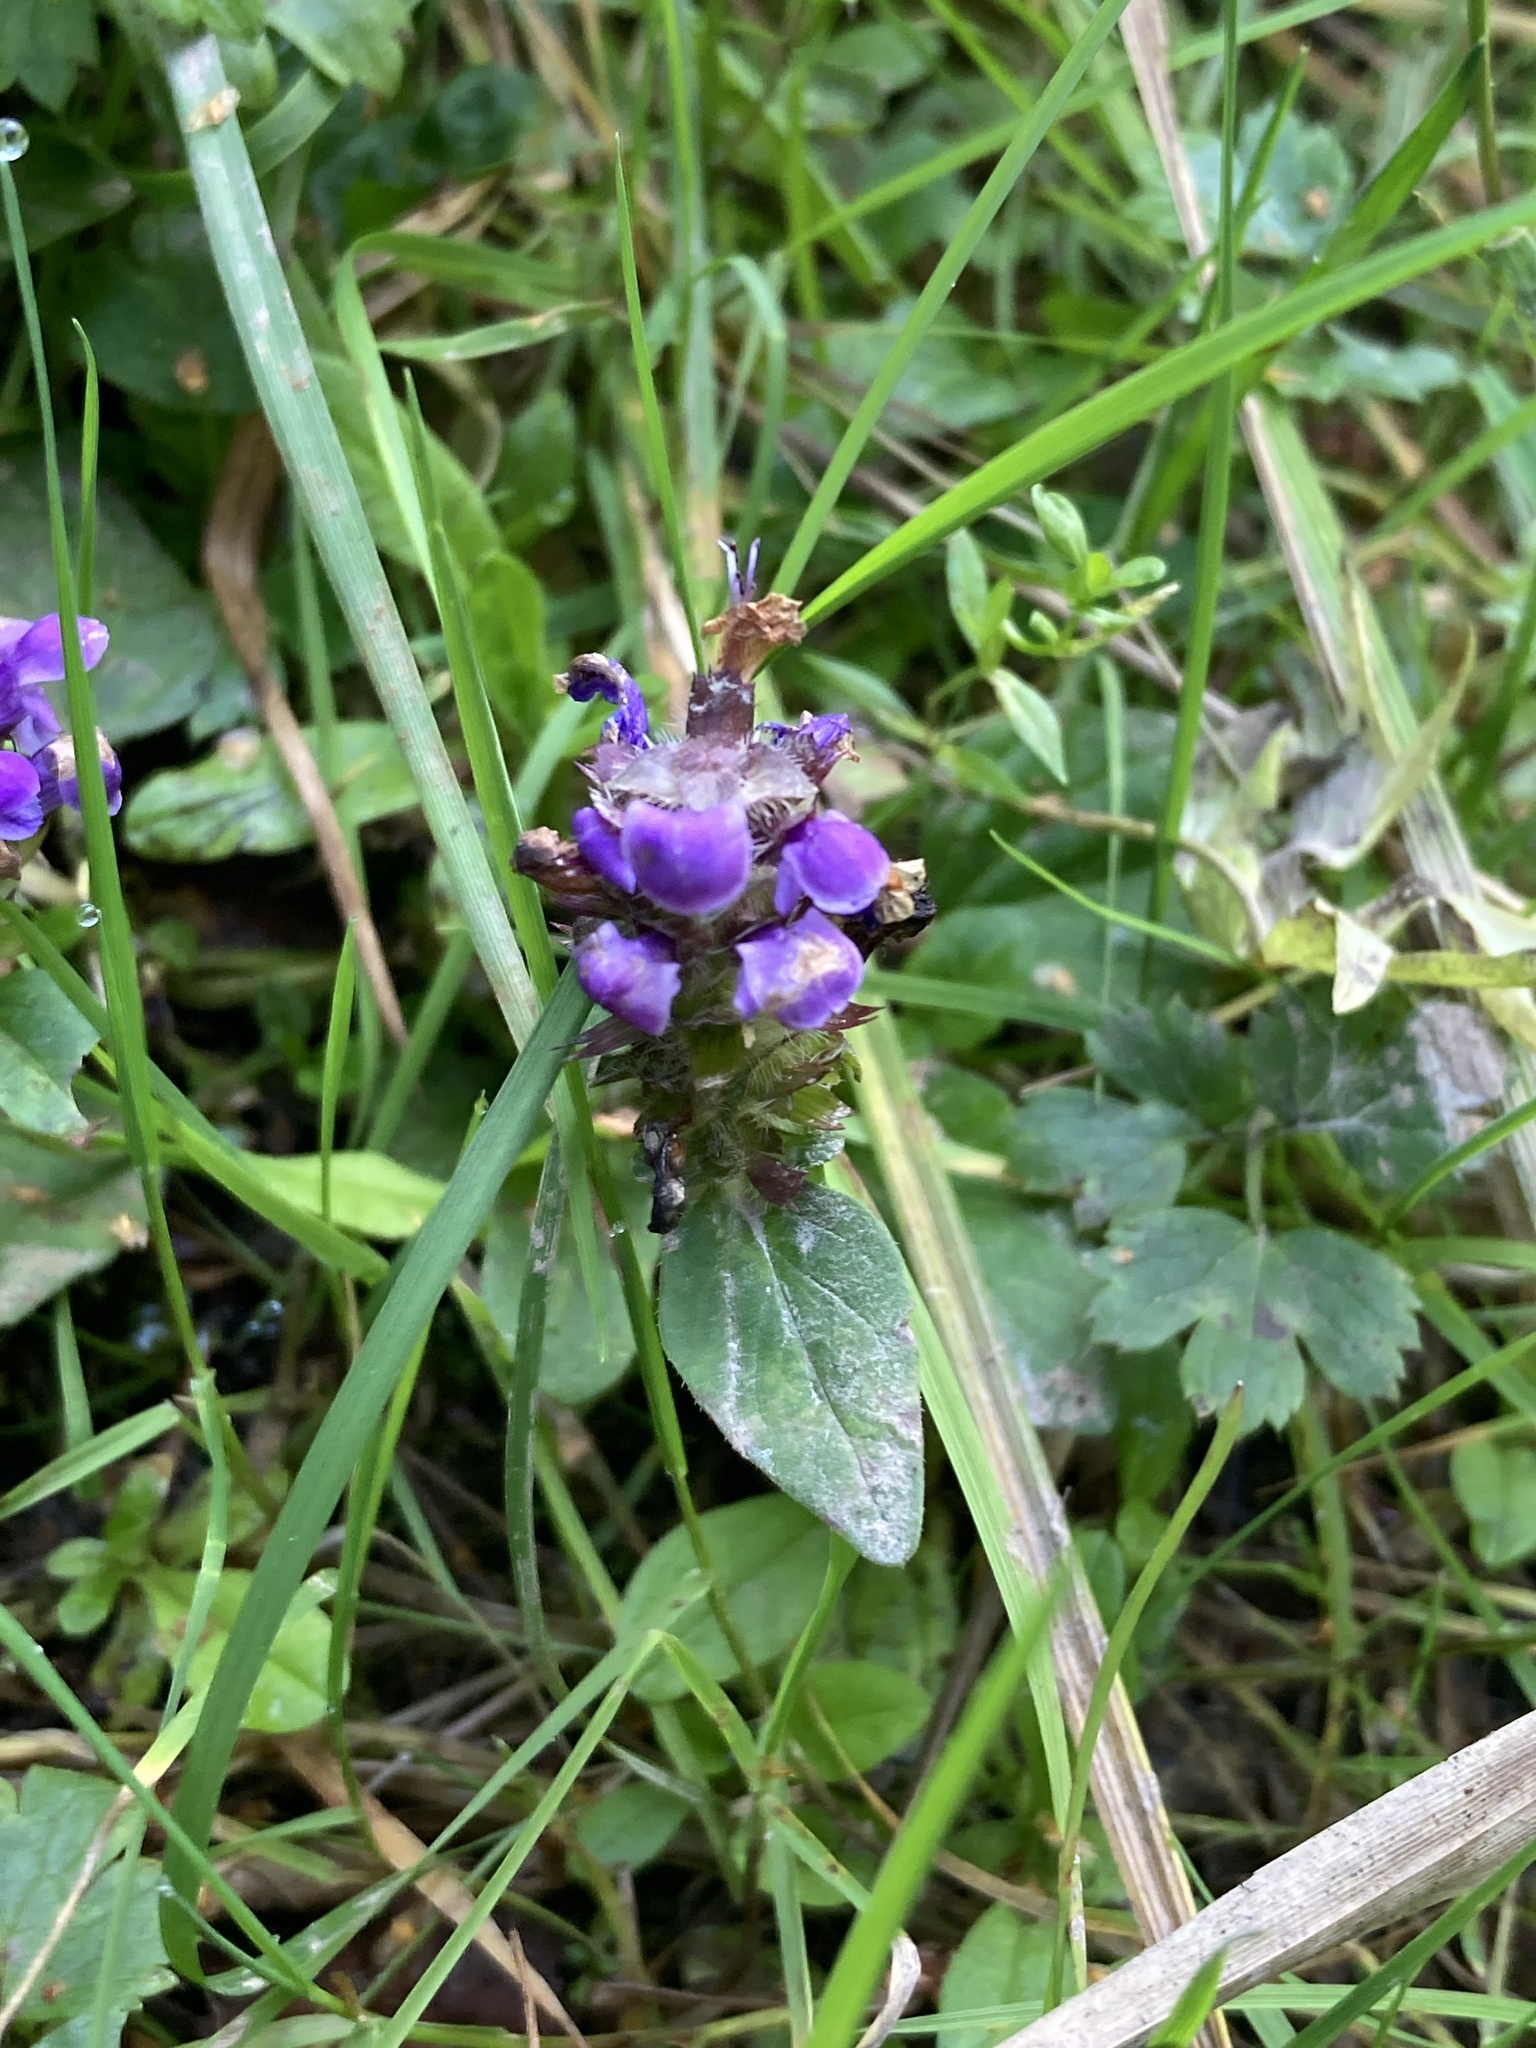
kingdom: Plantae
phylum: Tracheophyta
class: Magnoliopsida
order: Lamiales
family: Lamiaceae
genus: Prunella
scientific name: Prunella vulgaris
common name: Heal-all
